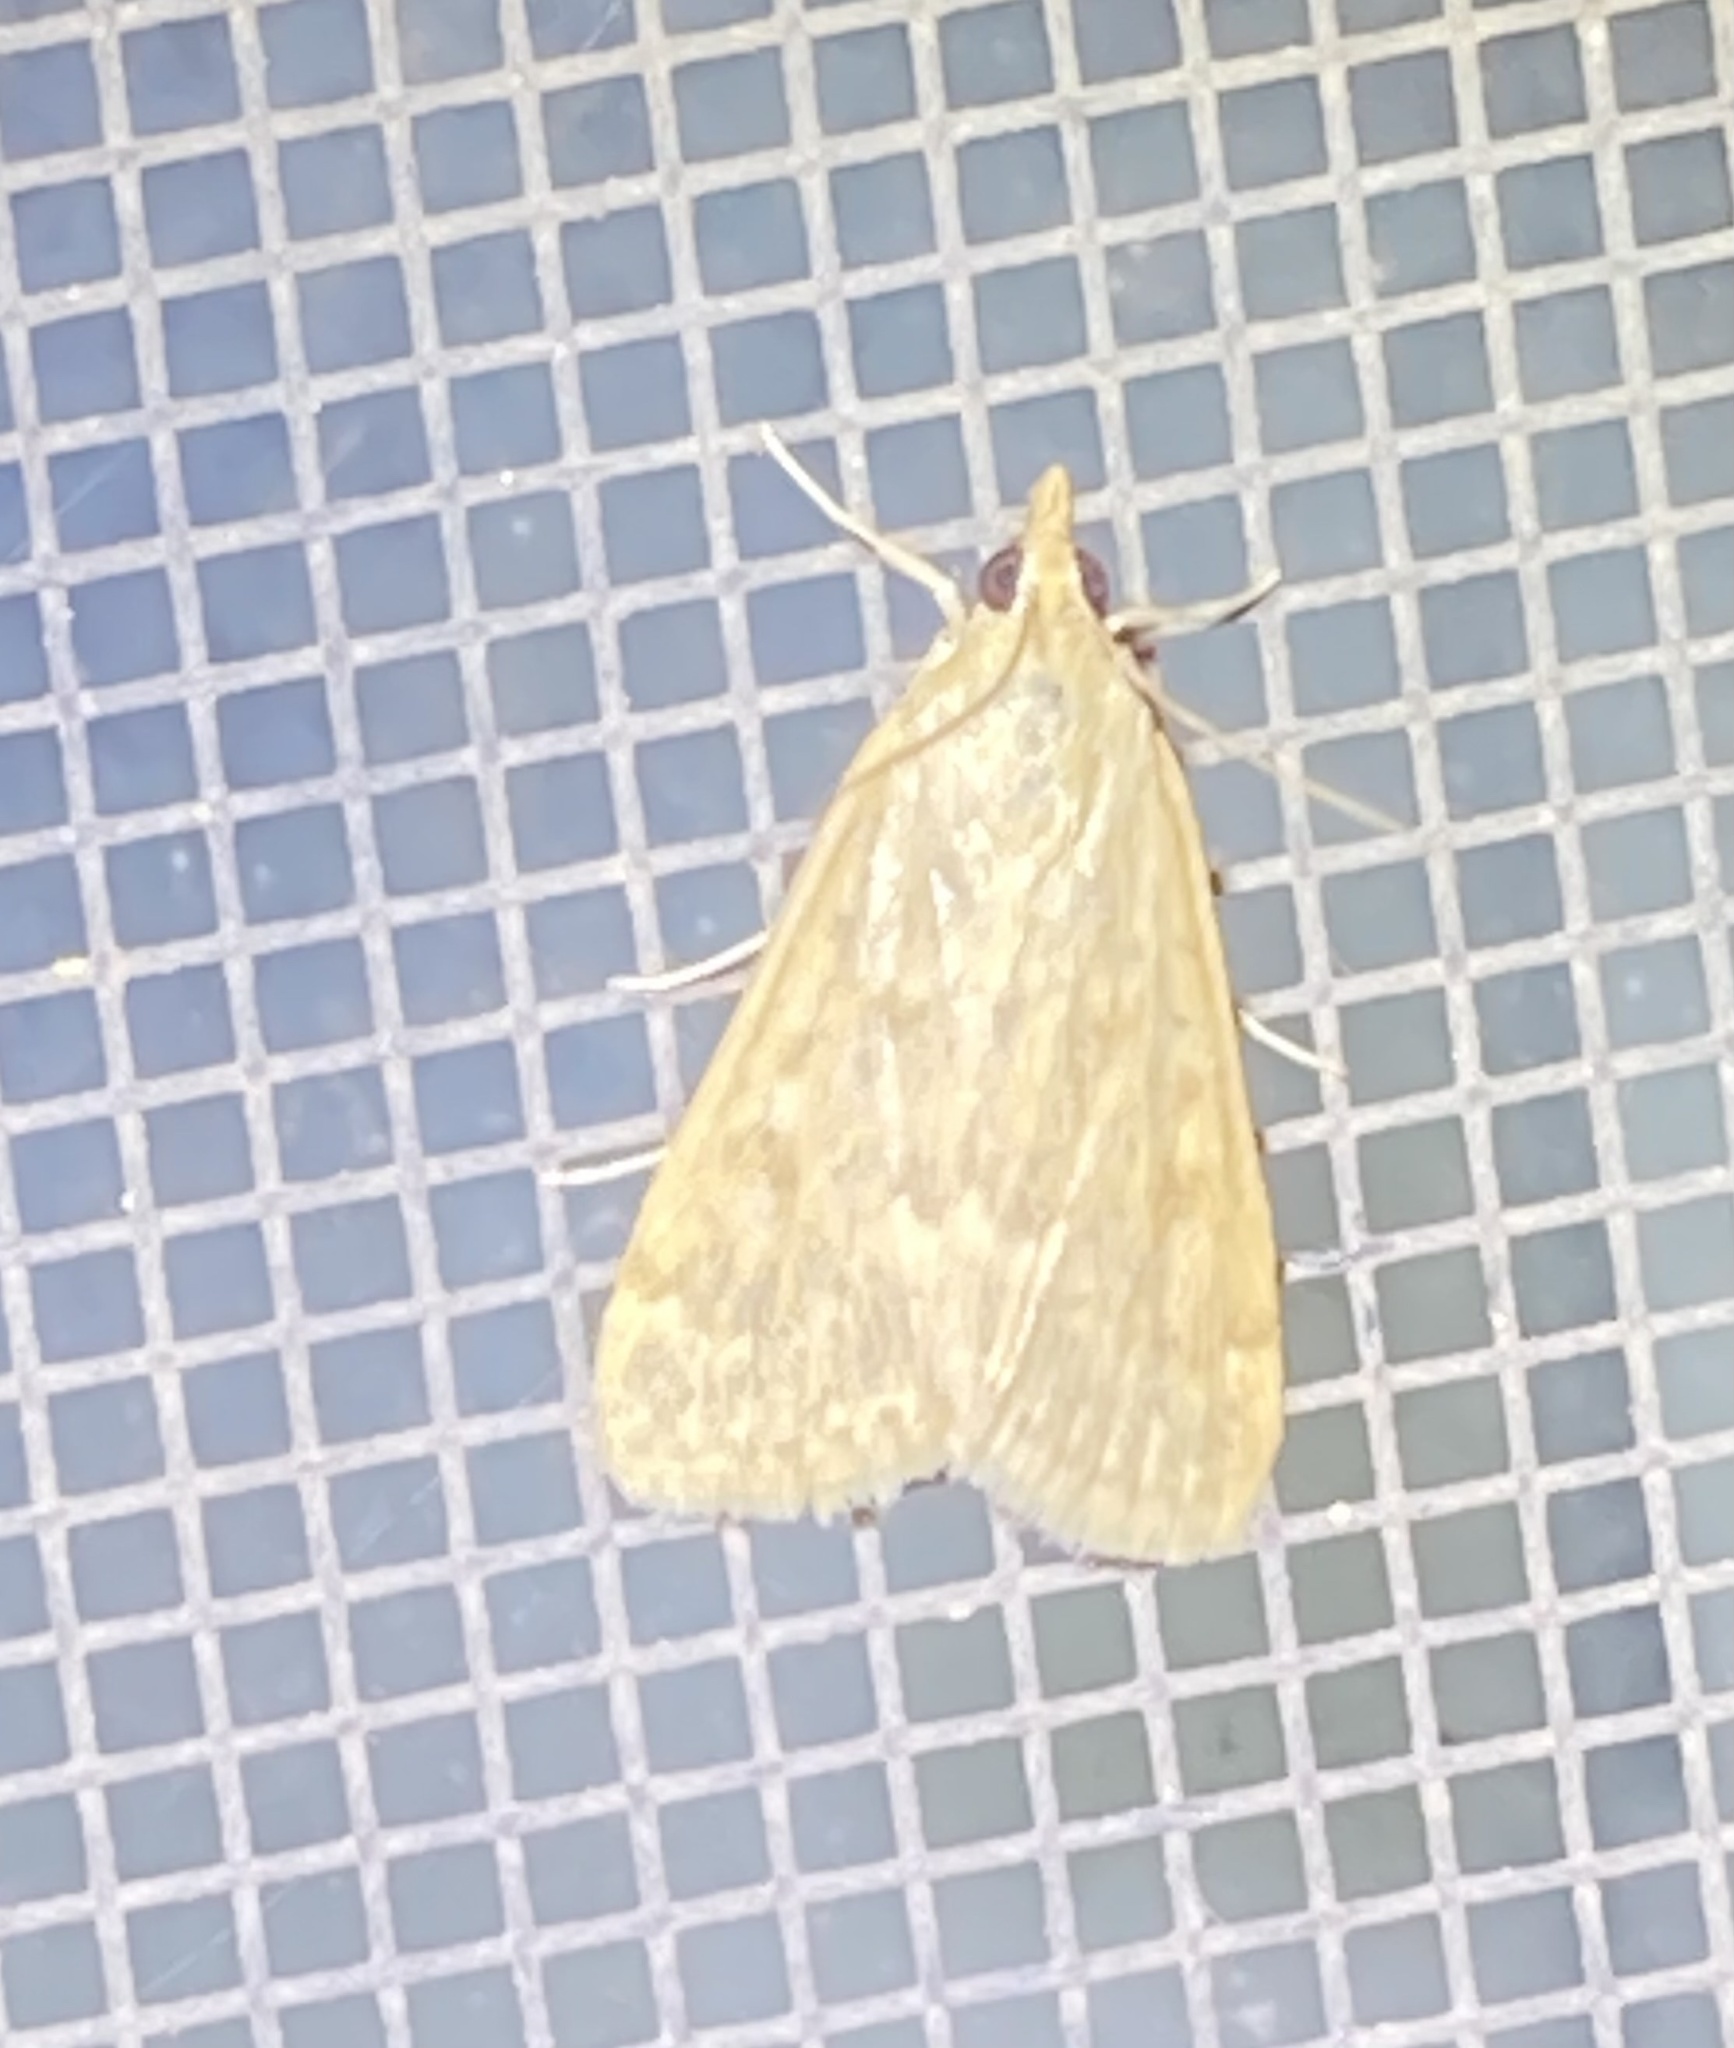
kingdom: Animalia
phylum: Arthropoda
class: Insecta
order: Lepidoptera
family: Crambidae
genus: Achyra
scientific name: Achyra rantalis
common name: Garden webworm
